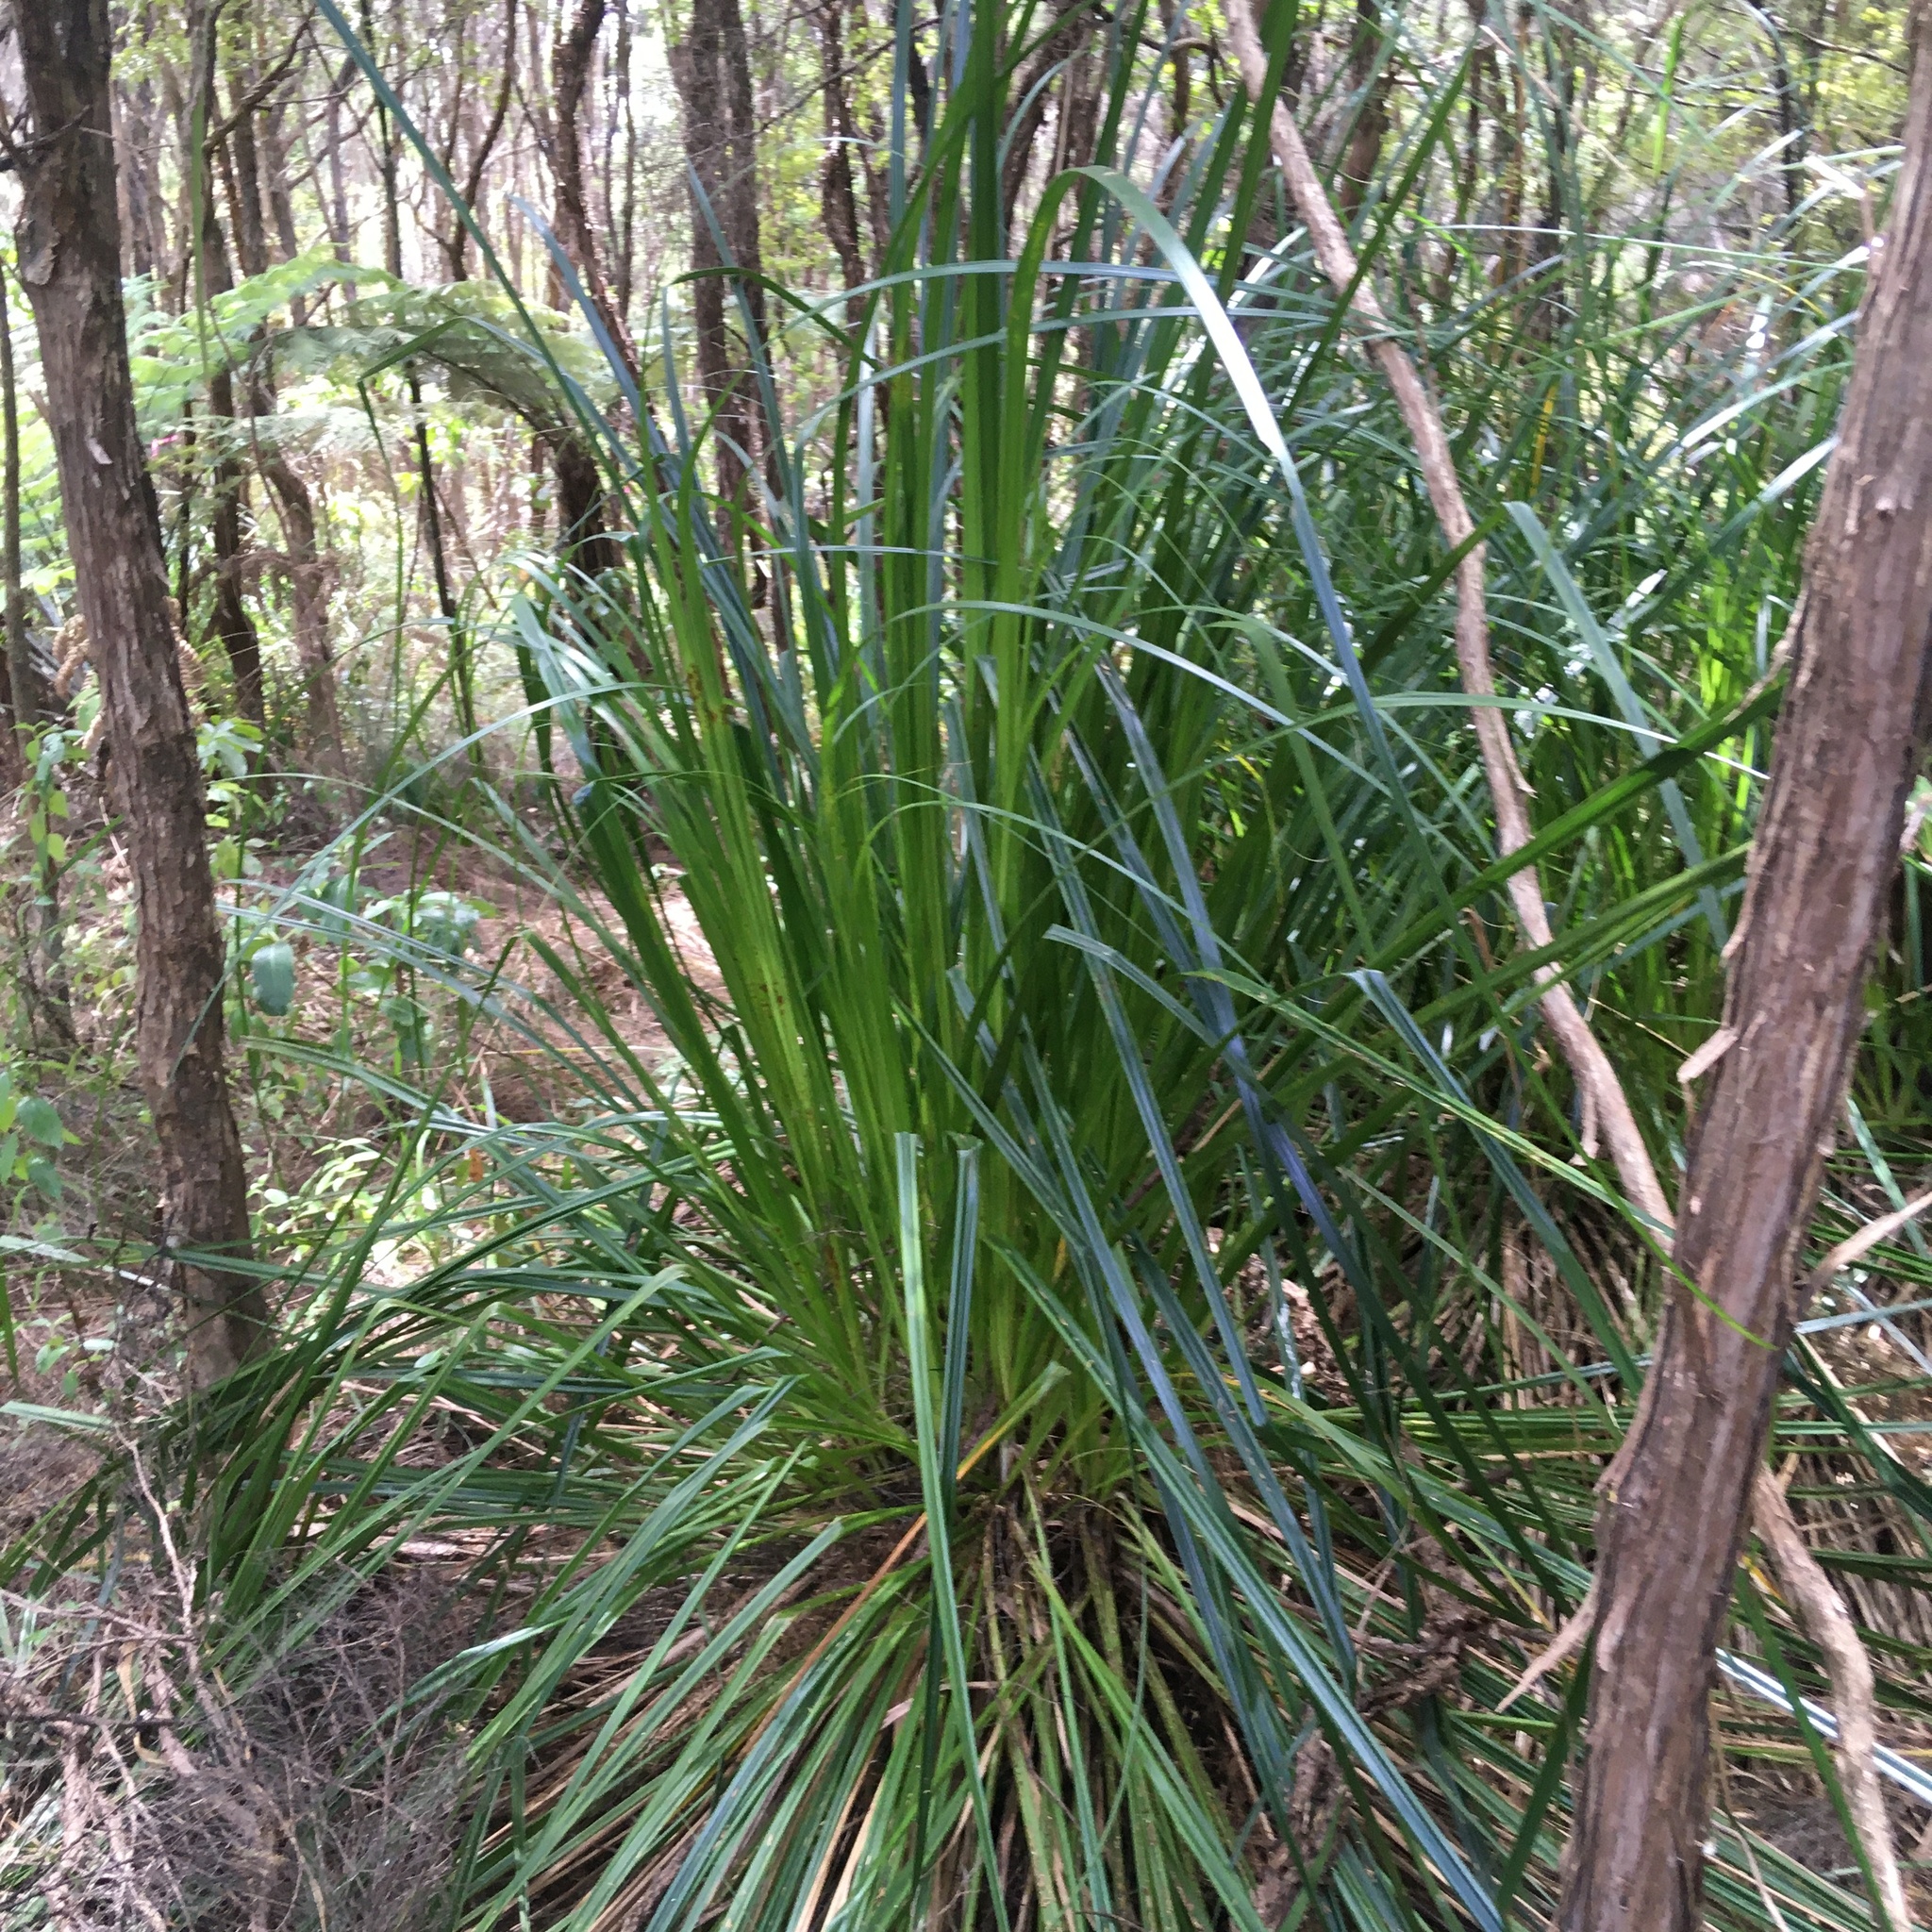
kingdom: Plantae
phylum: Tracheophyta
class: Liliopsida
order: Poales
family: Cyperaceae
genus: Gahnia
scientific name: Gahnia xanthocarpa
